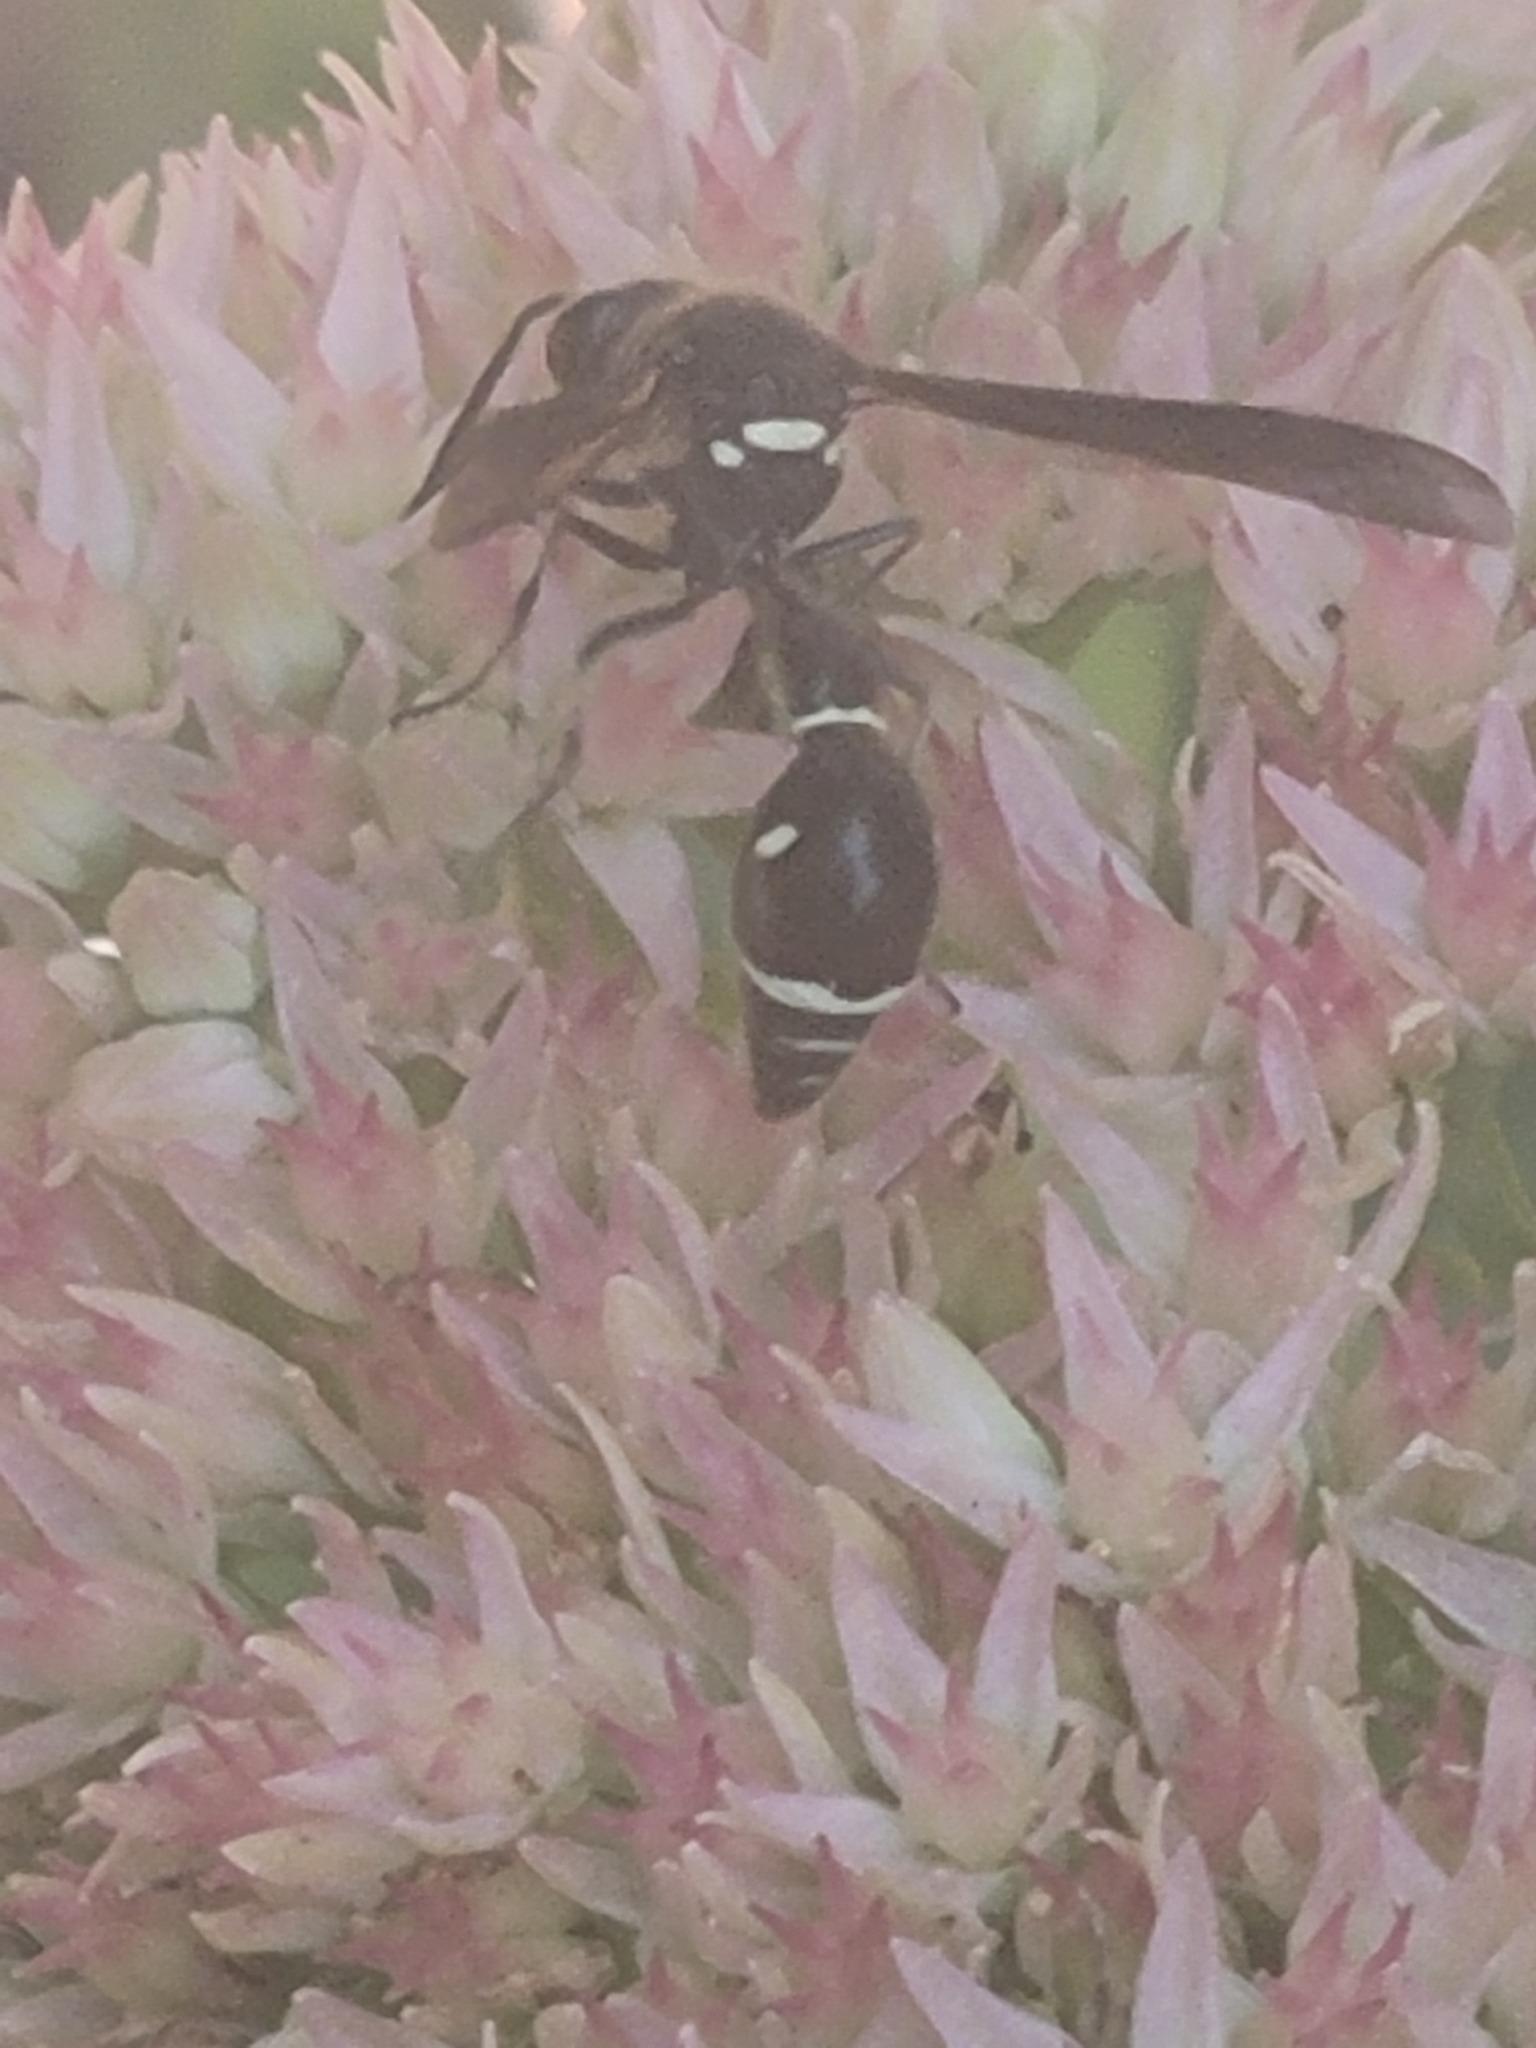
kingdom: Animalia
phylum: Arthropoda
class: Insecta
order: Hymenoptera
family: Vespidae
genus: Eumenes
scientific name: Eumenes fraternus
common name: Fraternal potter wasp
